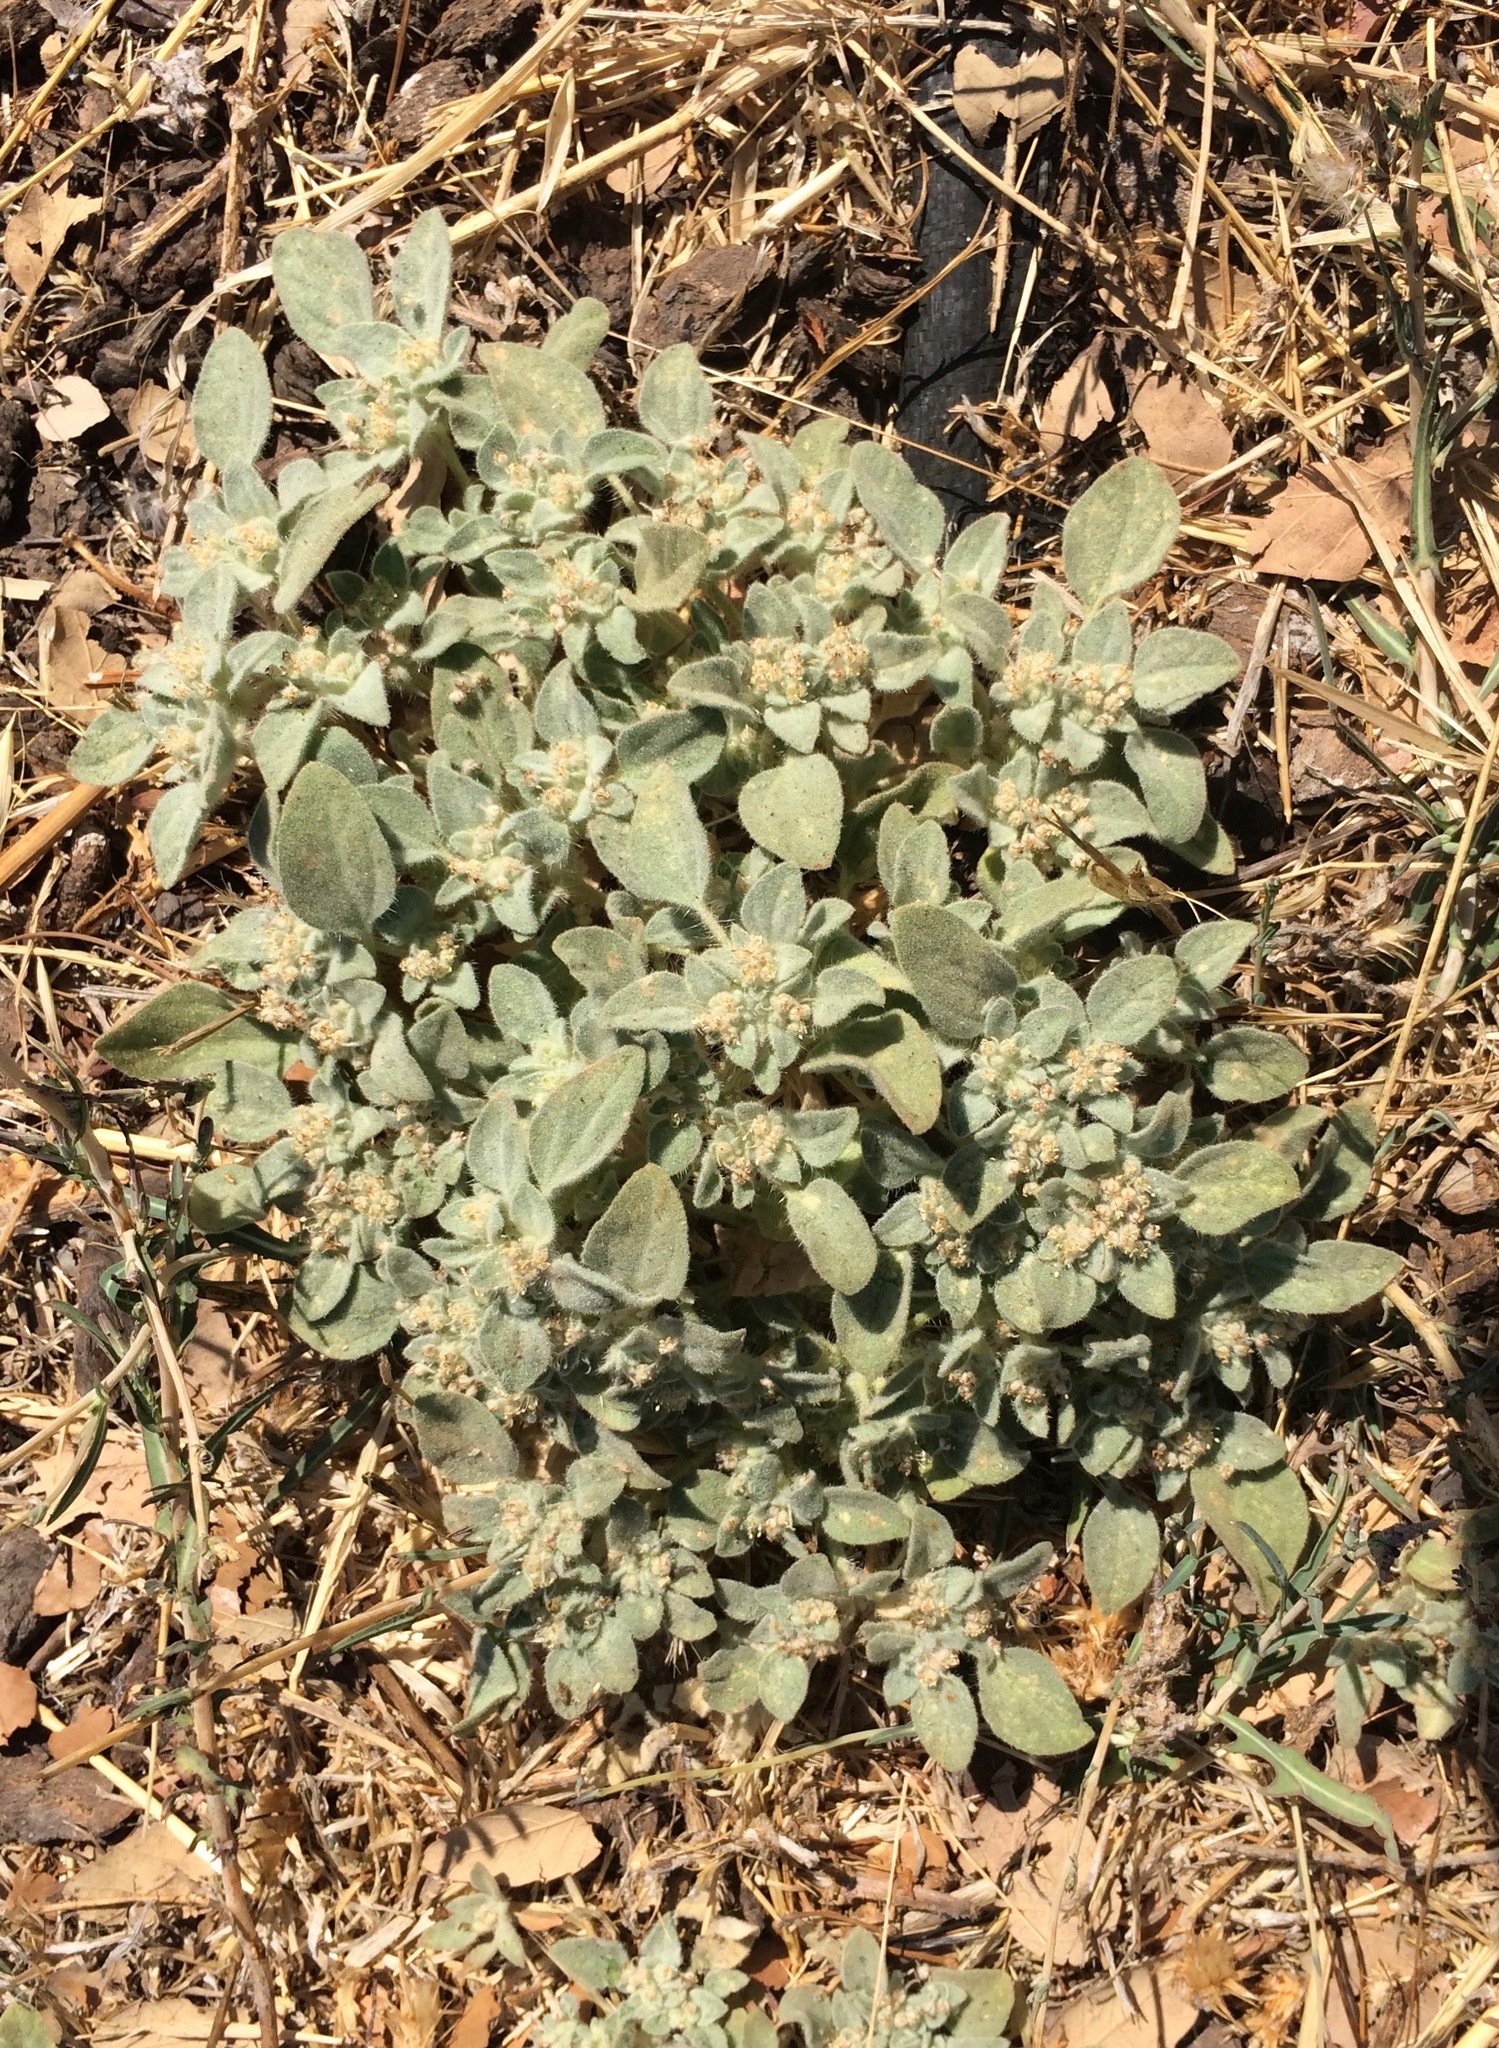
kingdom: Plantae
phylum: Tracheophyta
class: Magnoliopsida
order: Malpighiales
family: Euphorbiaceae
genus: Croton
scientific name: Croton setiger
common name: Dove weed
